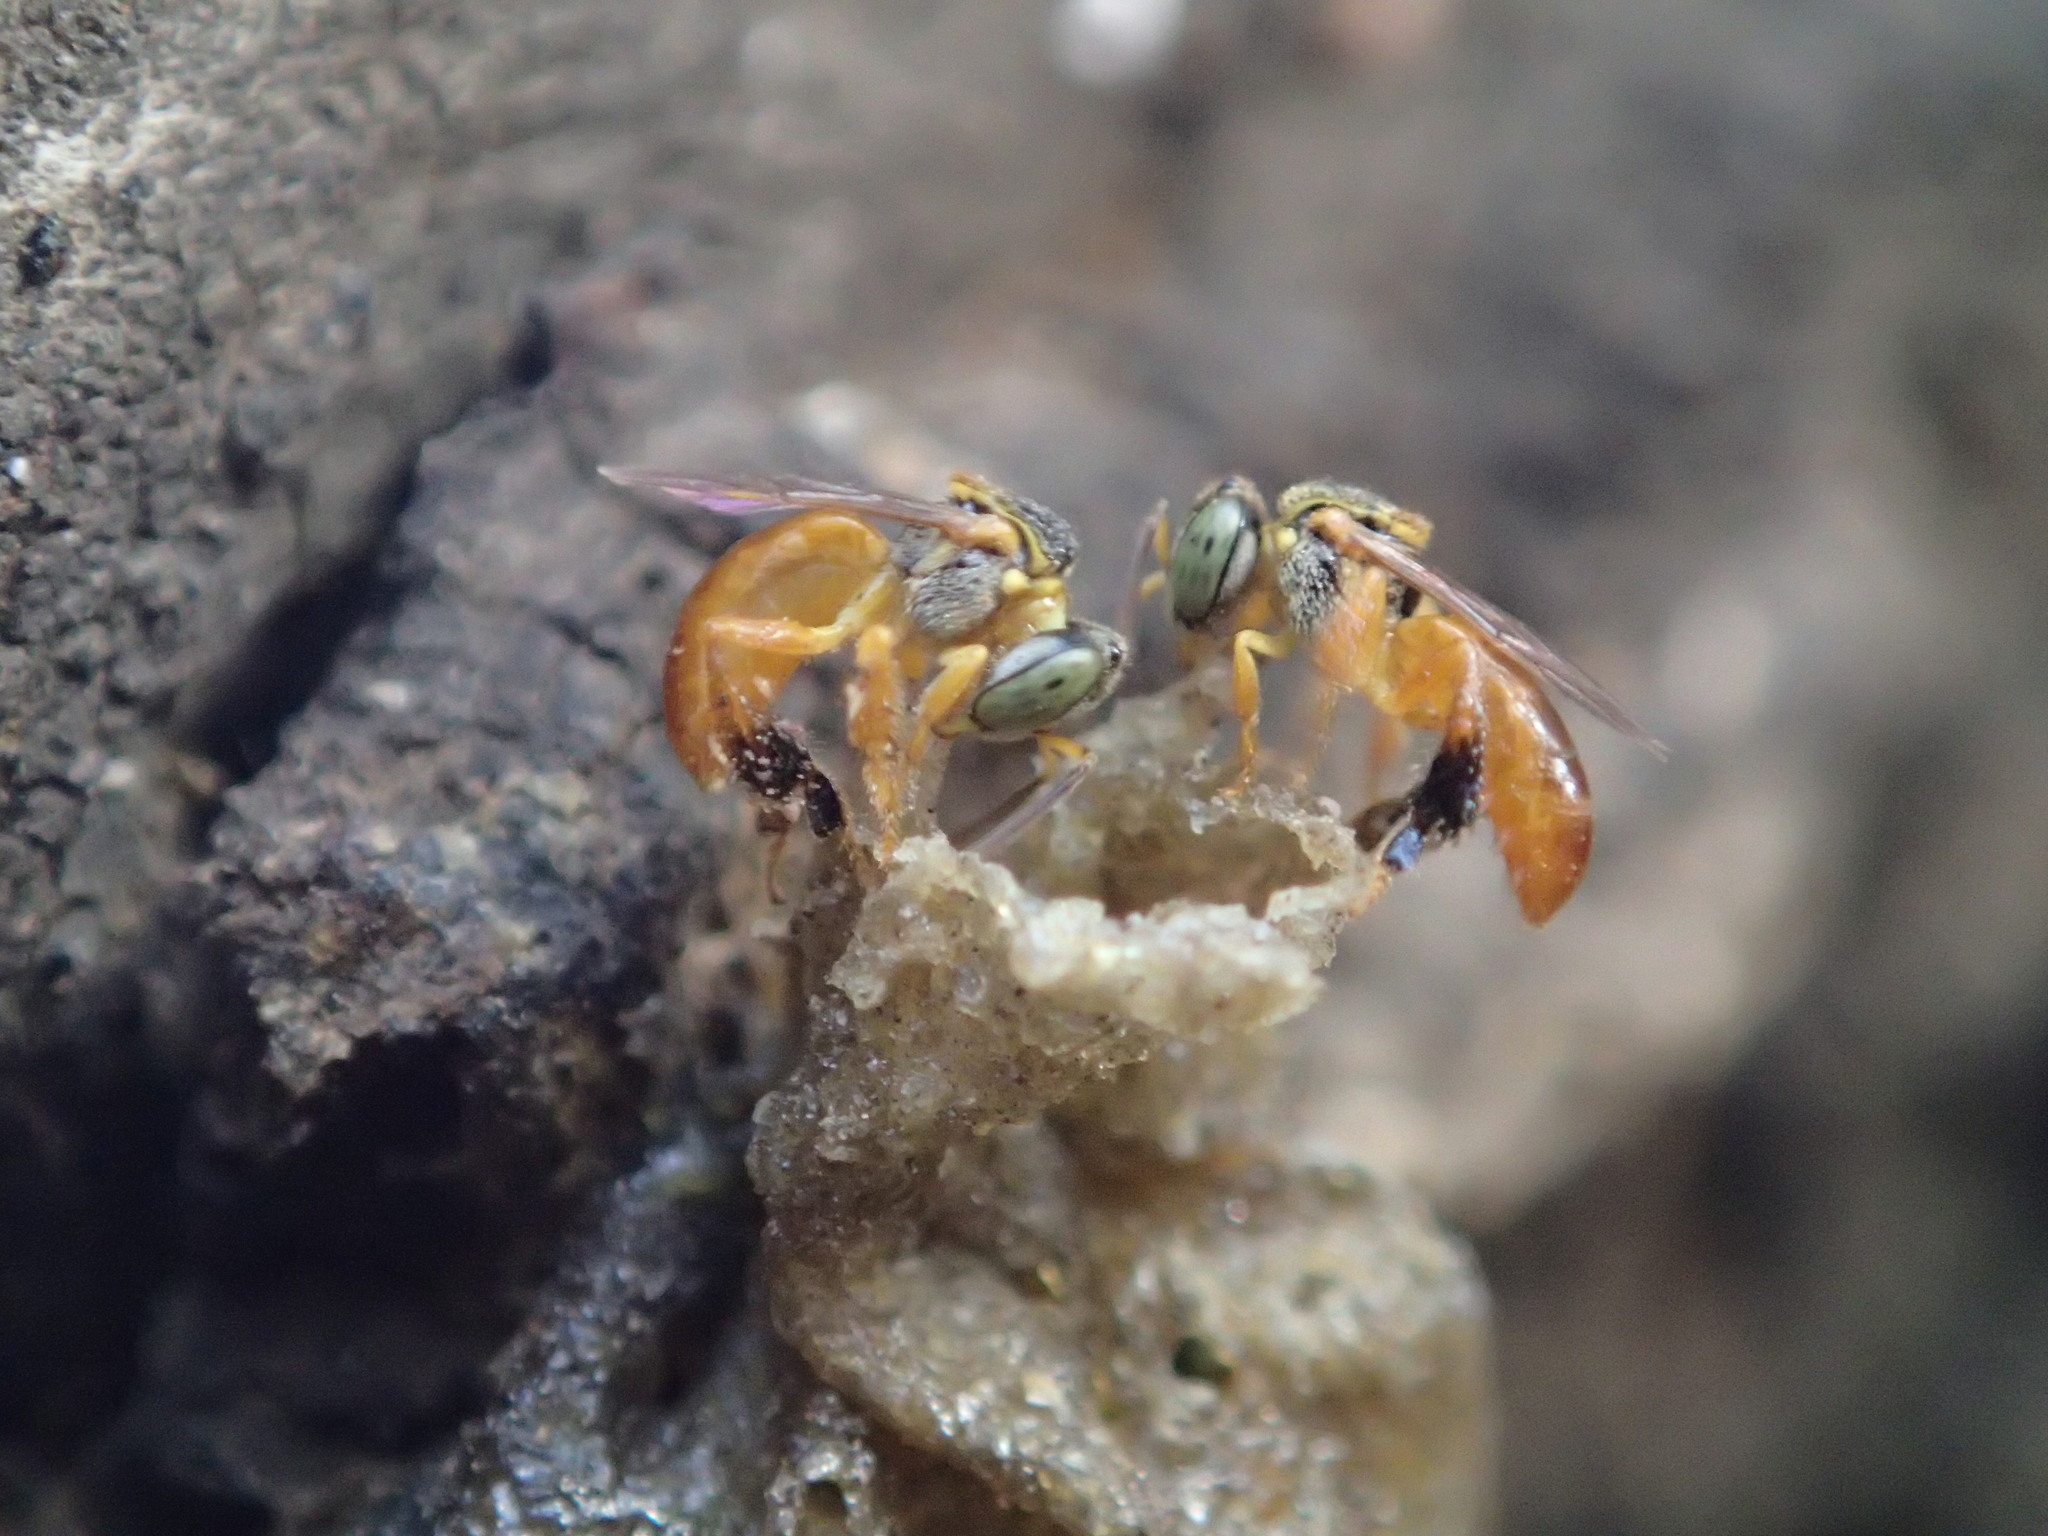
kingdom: Animalia
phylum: Arthropoda
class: Insecta
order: Hymenoptera
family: Apidae
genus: Tetragonisca
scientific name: Tetragonisca angustula
